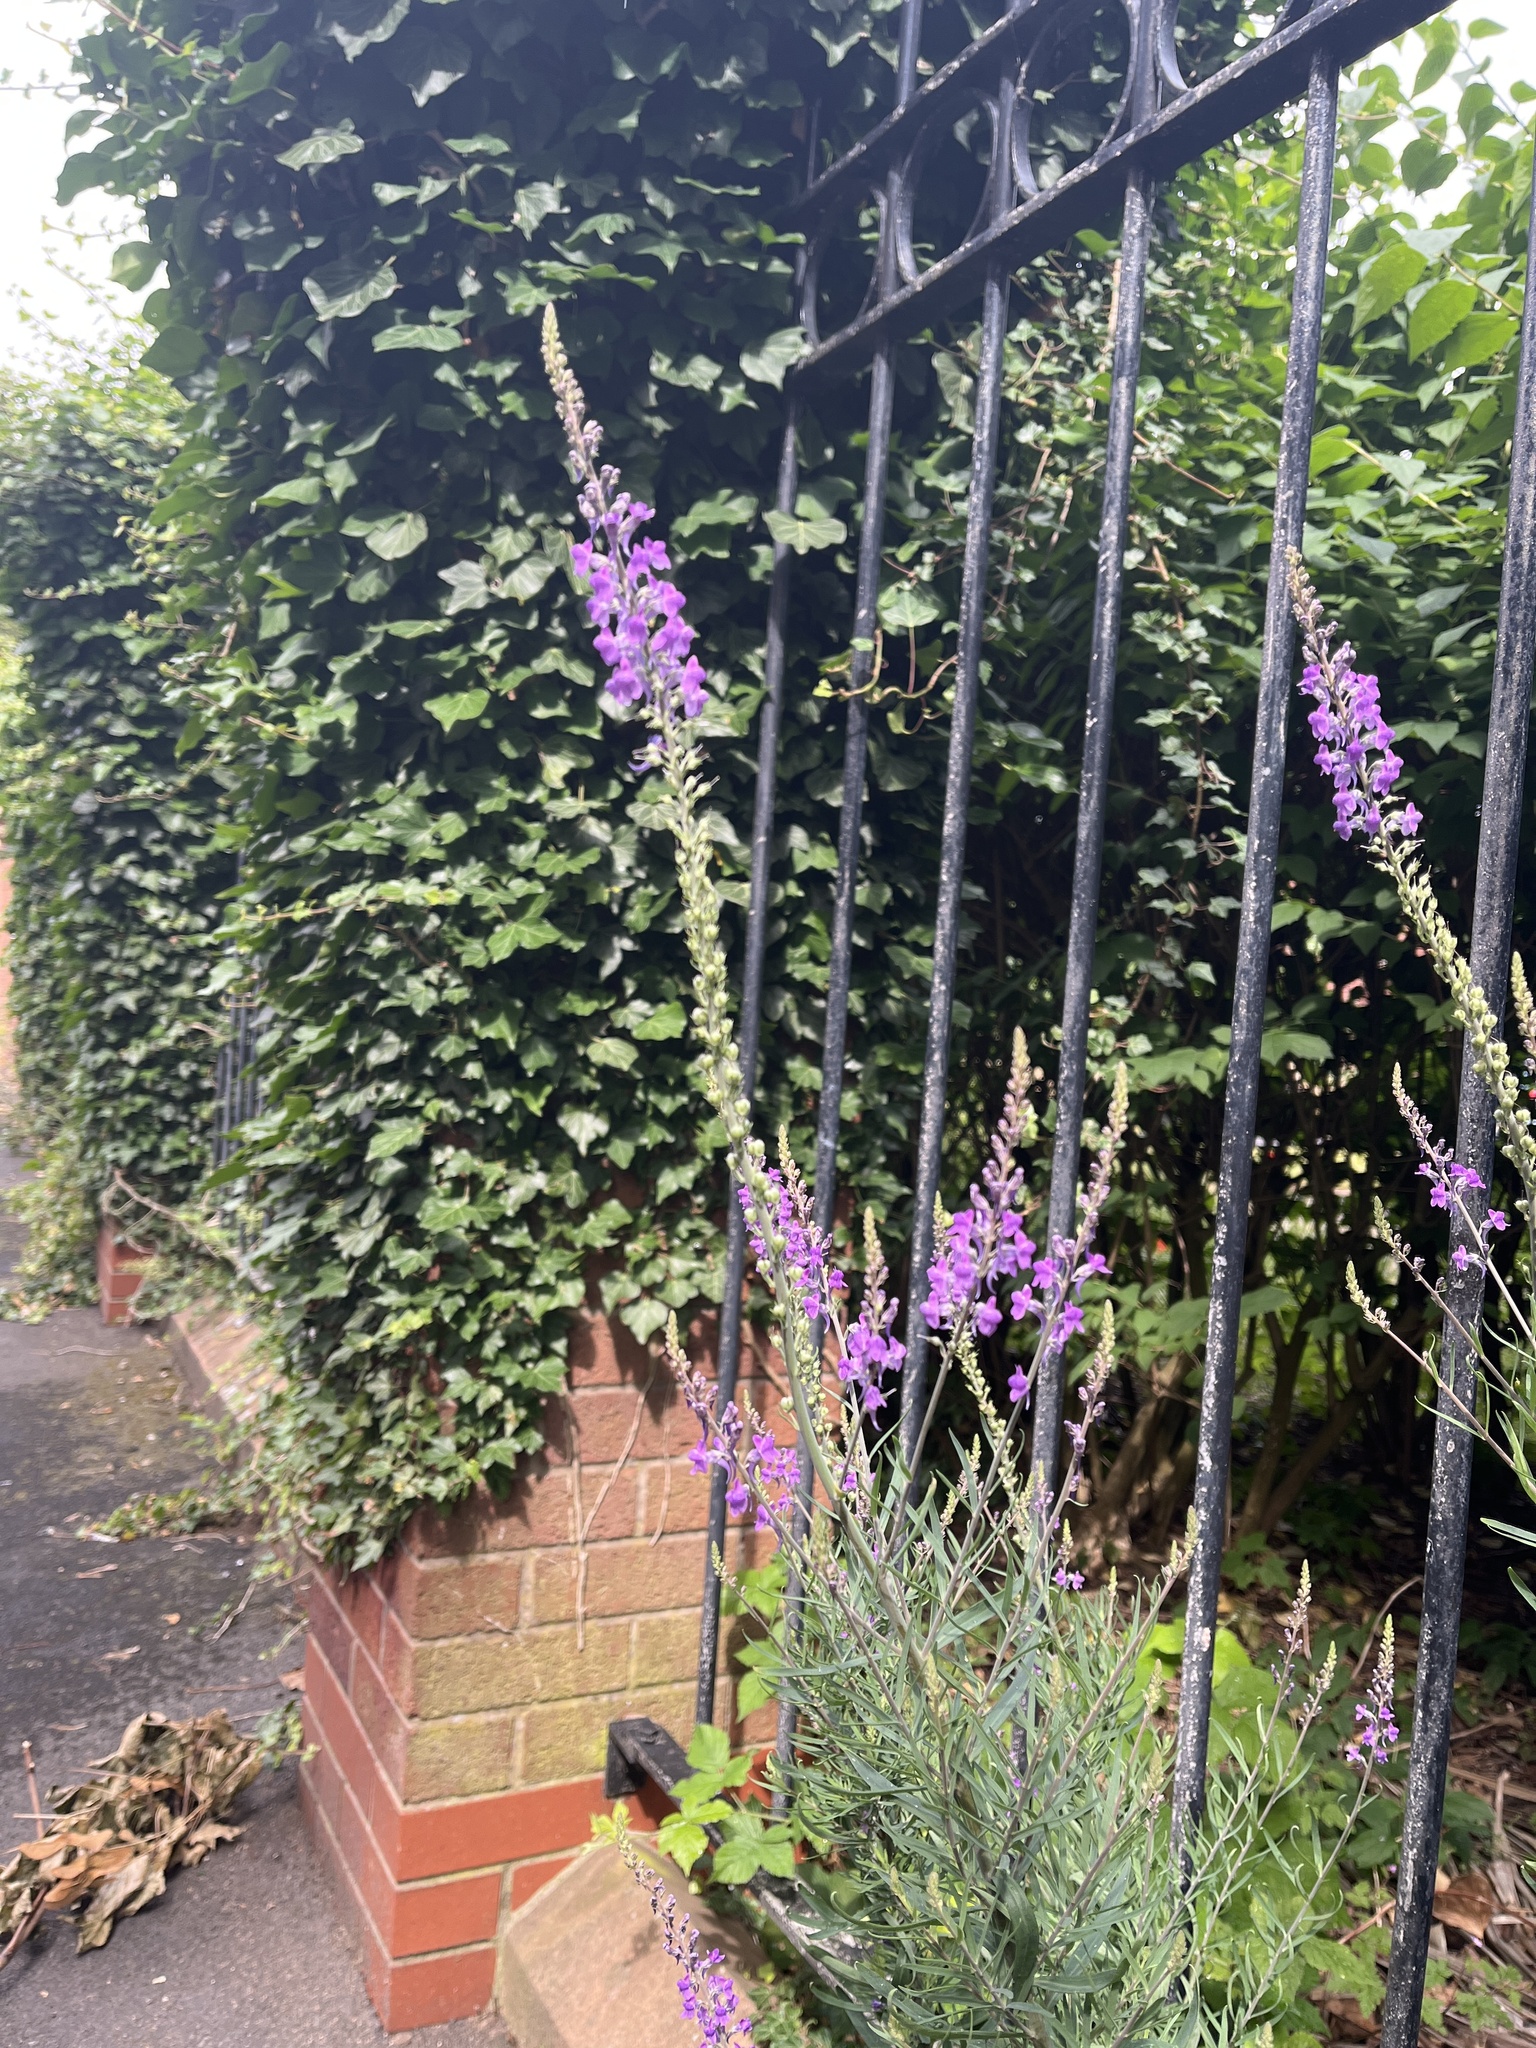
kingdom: Plantae
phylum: Tracheophyta
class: Magnoliopsida
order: Lamiales
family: Plantaginaceae
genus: Linaria
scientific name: Linaria purpurea
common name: Purple toadflax
